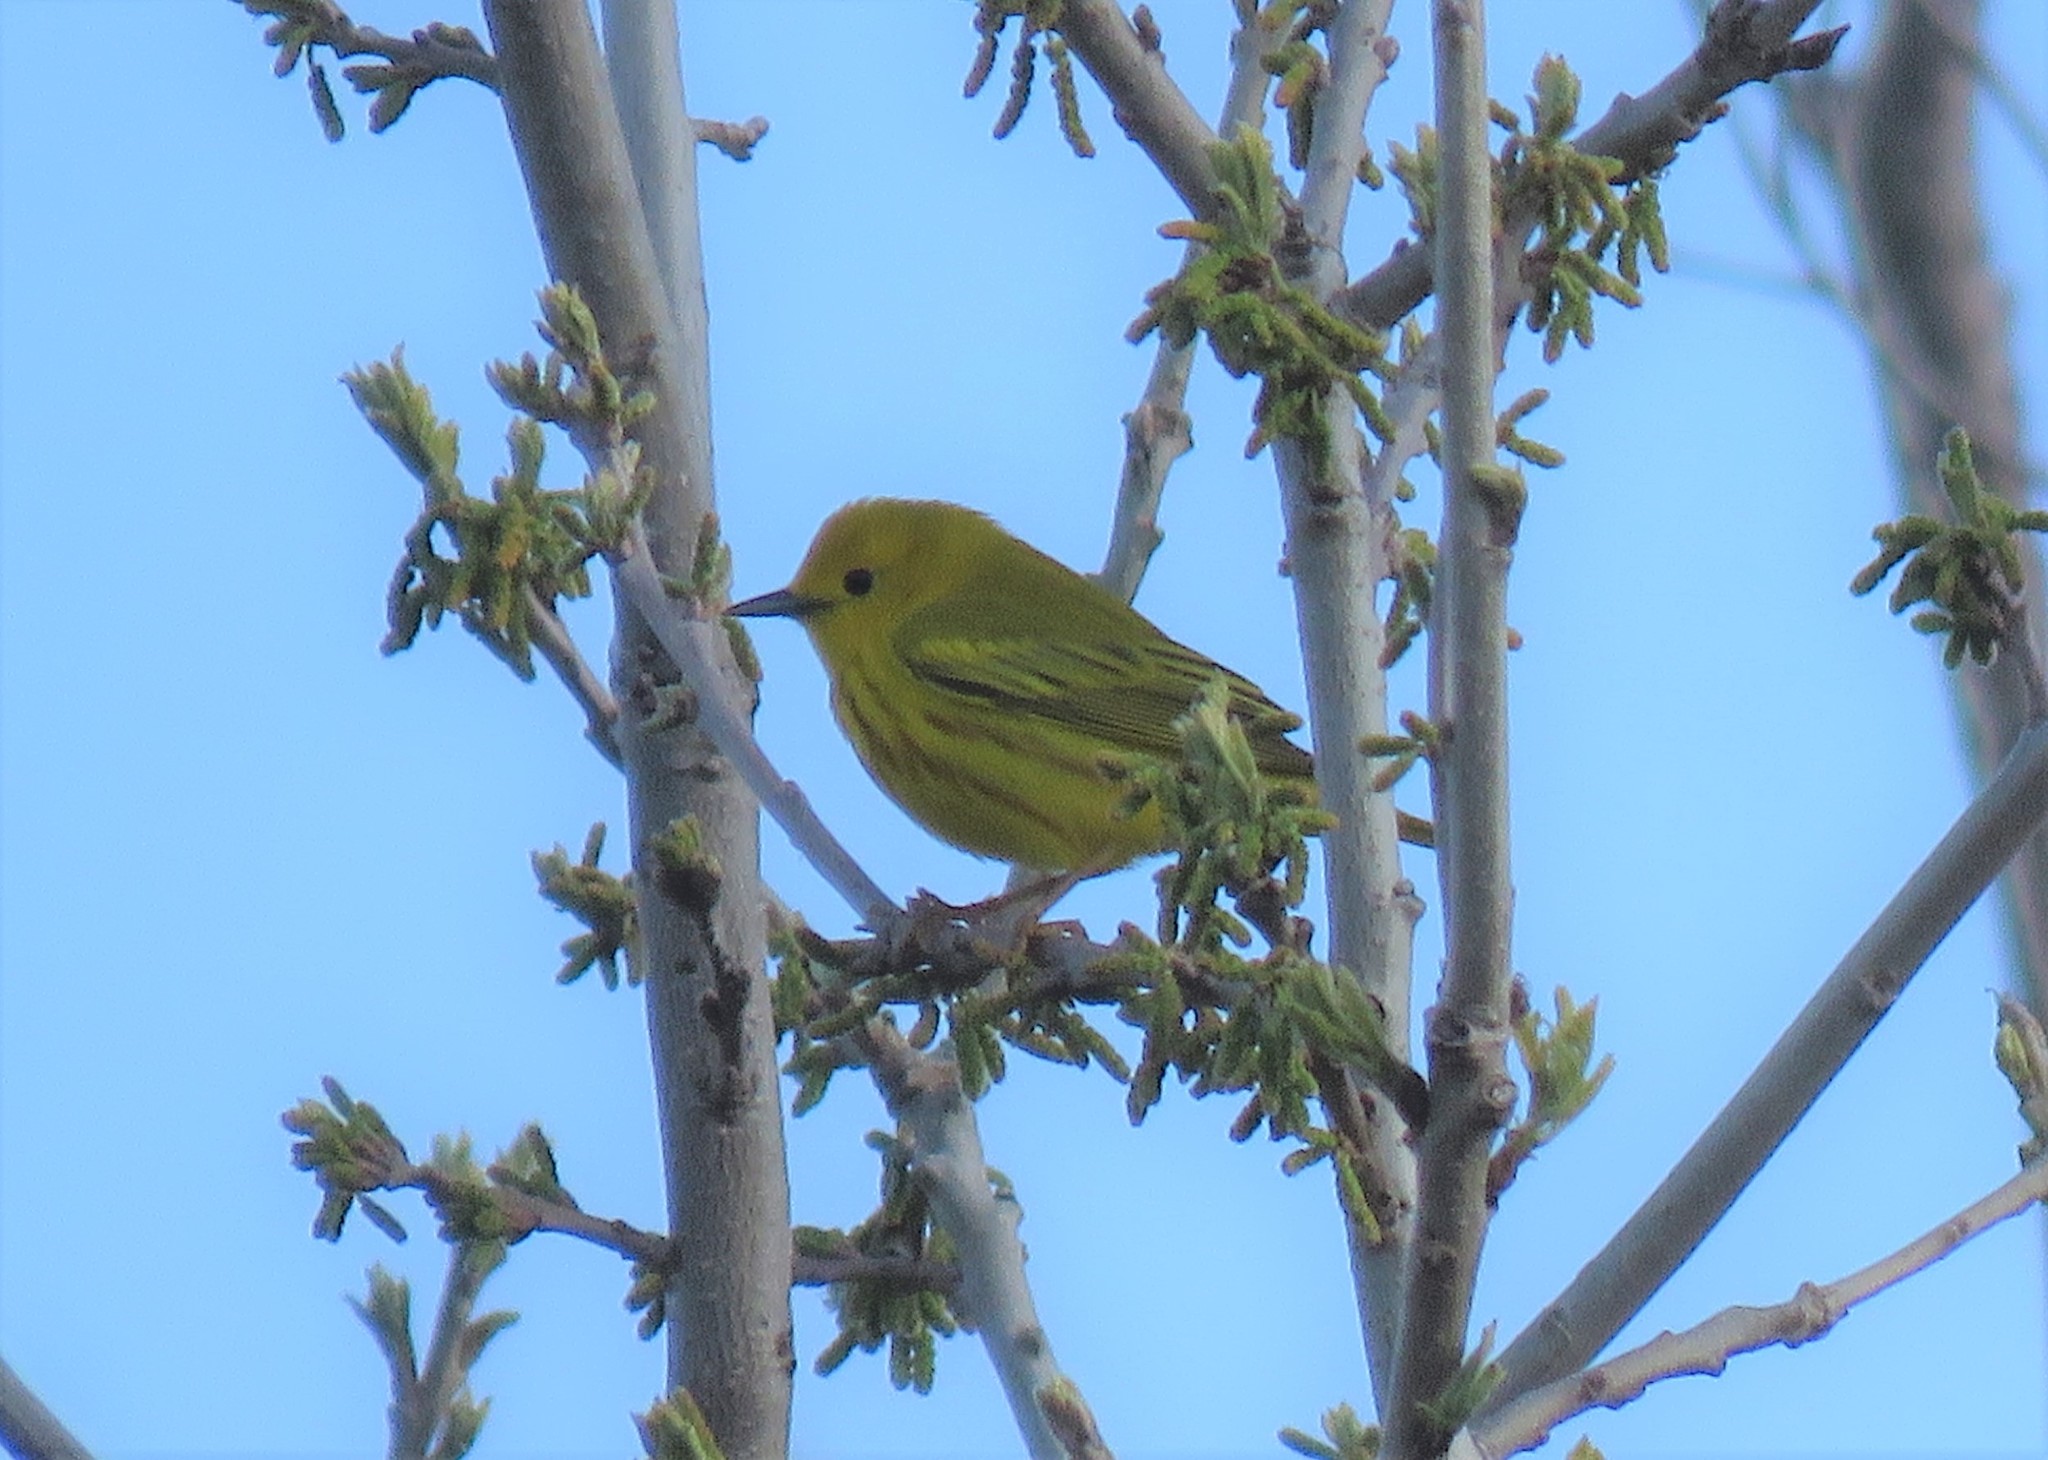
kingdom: Animalia
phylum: Chordata
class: Aves
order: Passeriformes
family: Parulidae
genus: Setophaga
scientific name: Setophaga petechia
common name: Yellow warbler
